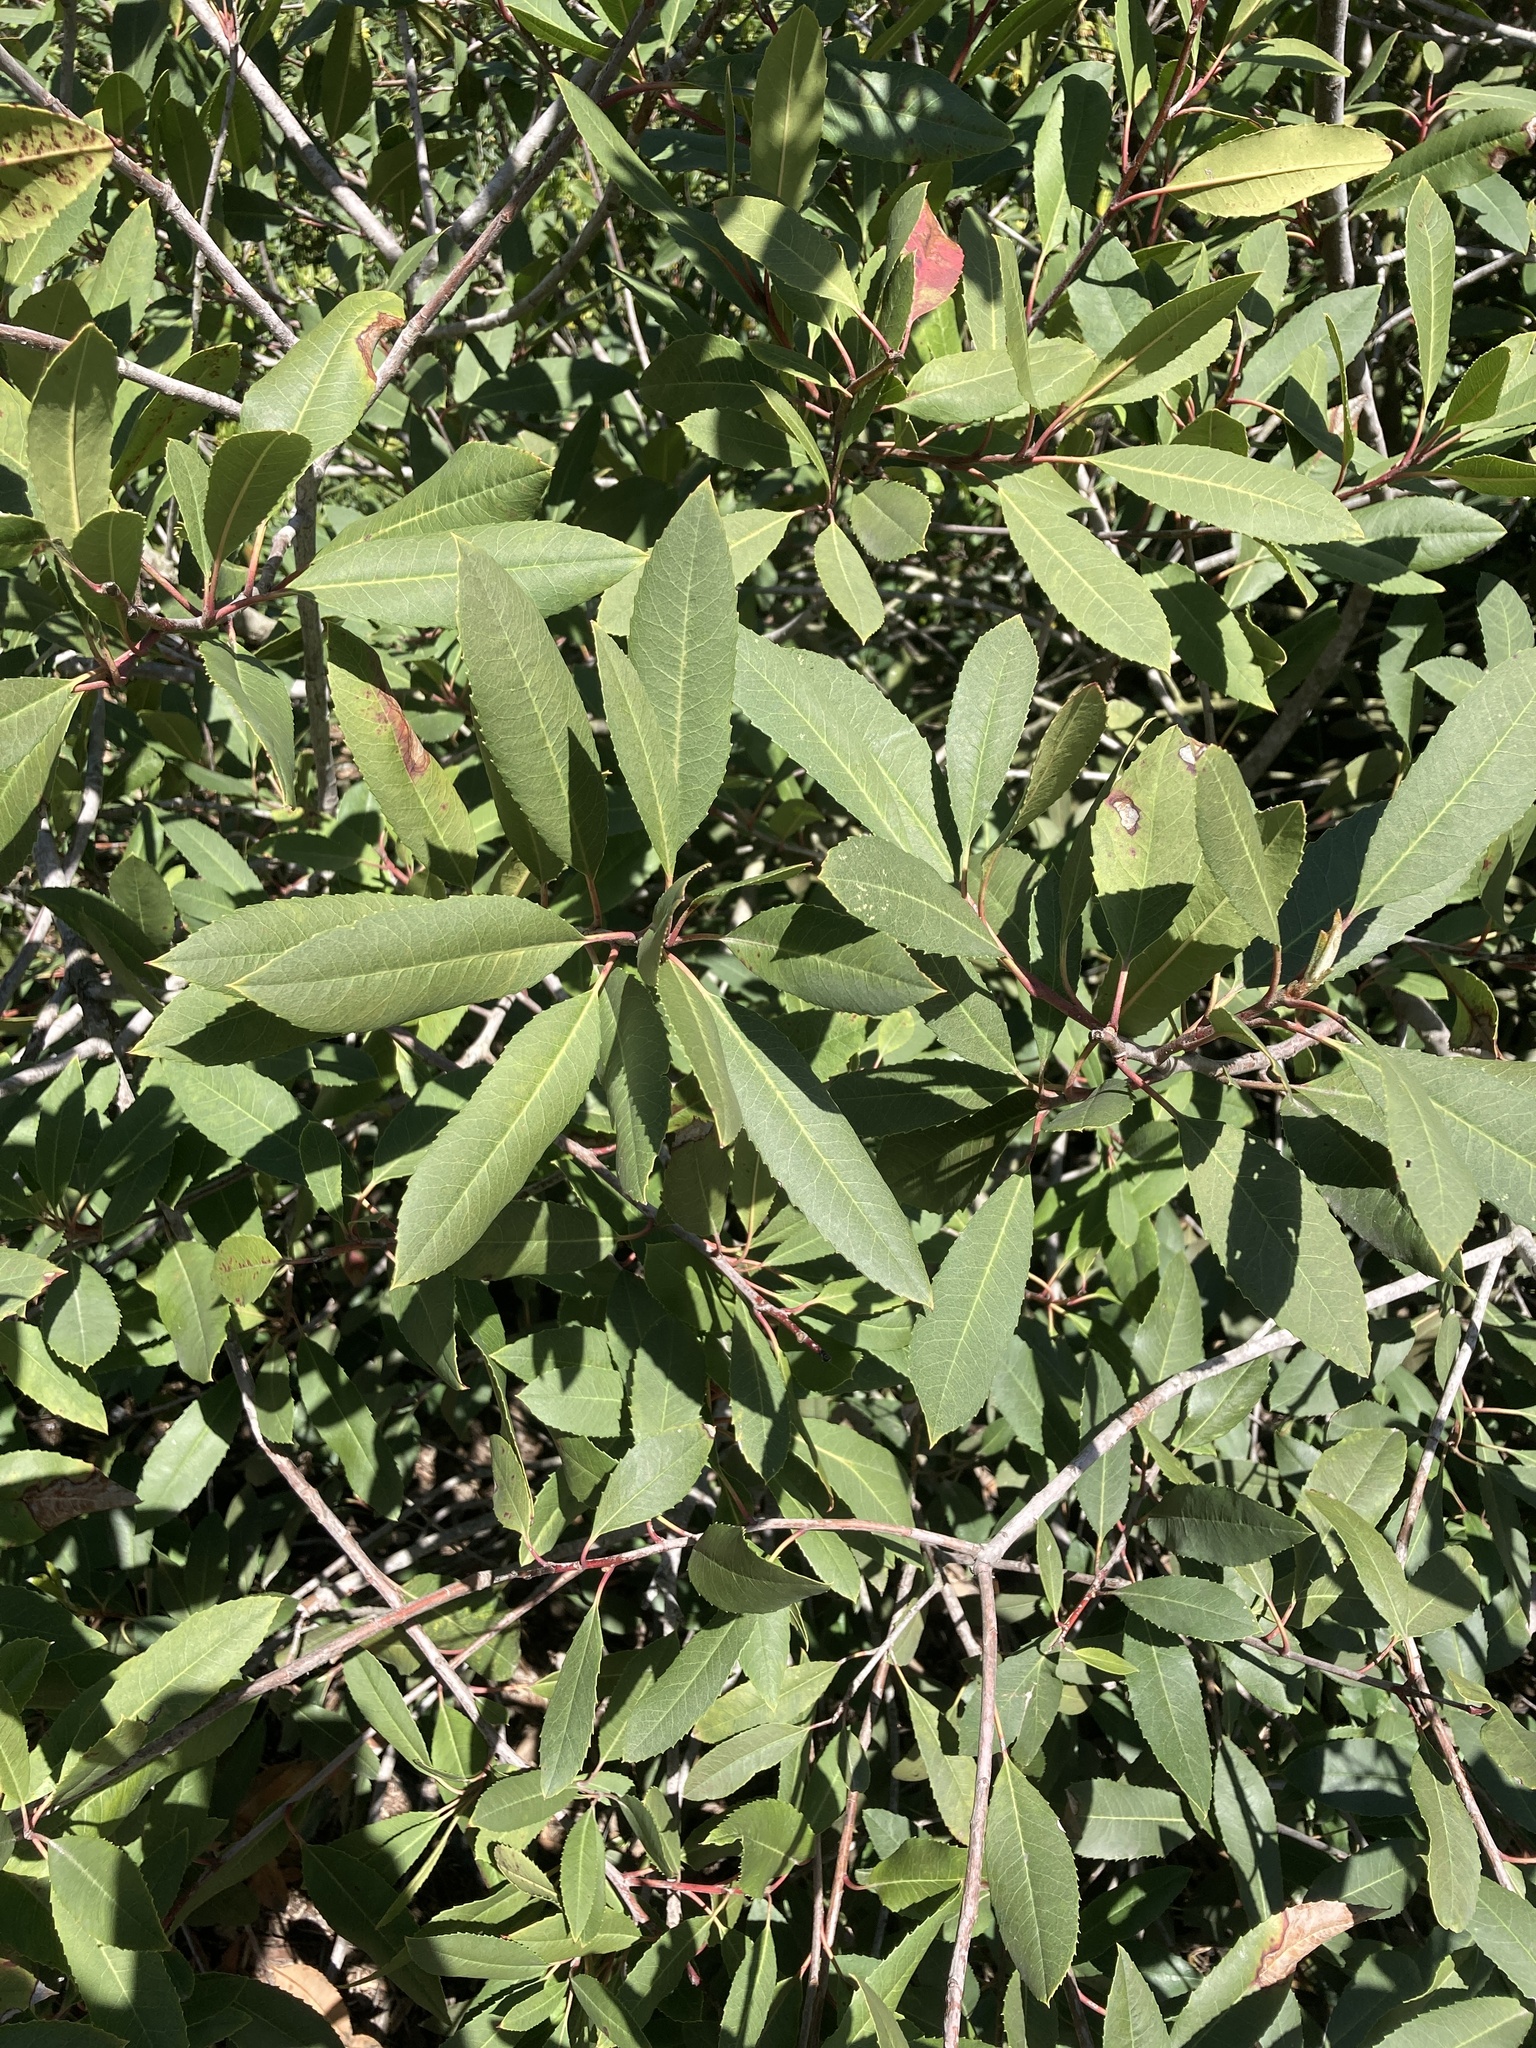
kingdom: Plantae
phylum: Tracheophyta
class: Magnoliopsida
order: Rosales
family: Rosaceae
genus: Heteromeles
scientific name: Heteromeles arbutifolia
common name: California-holly
